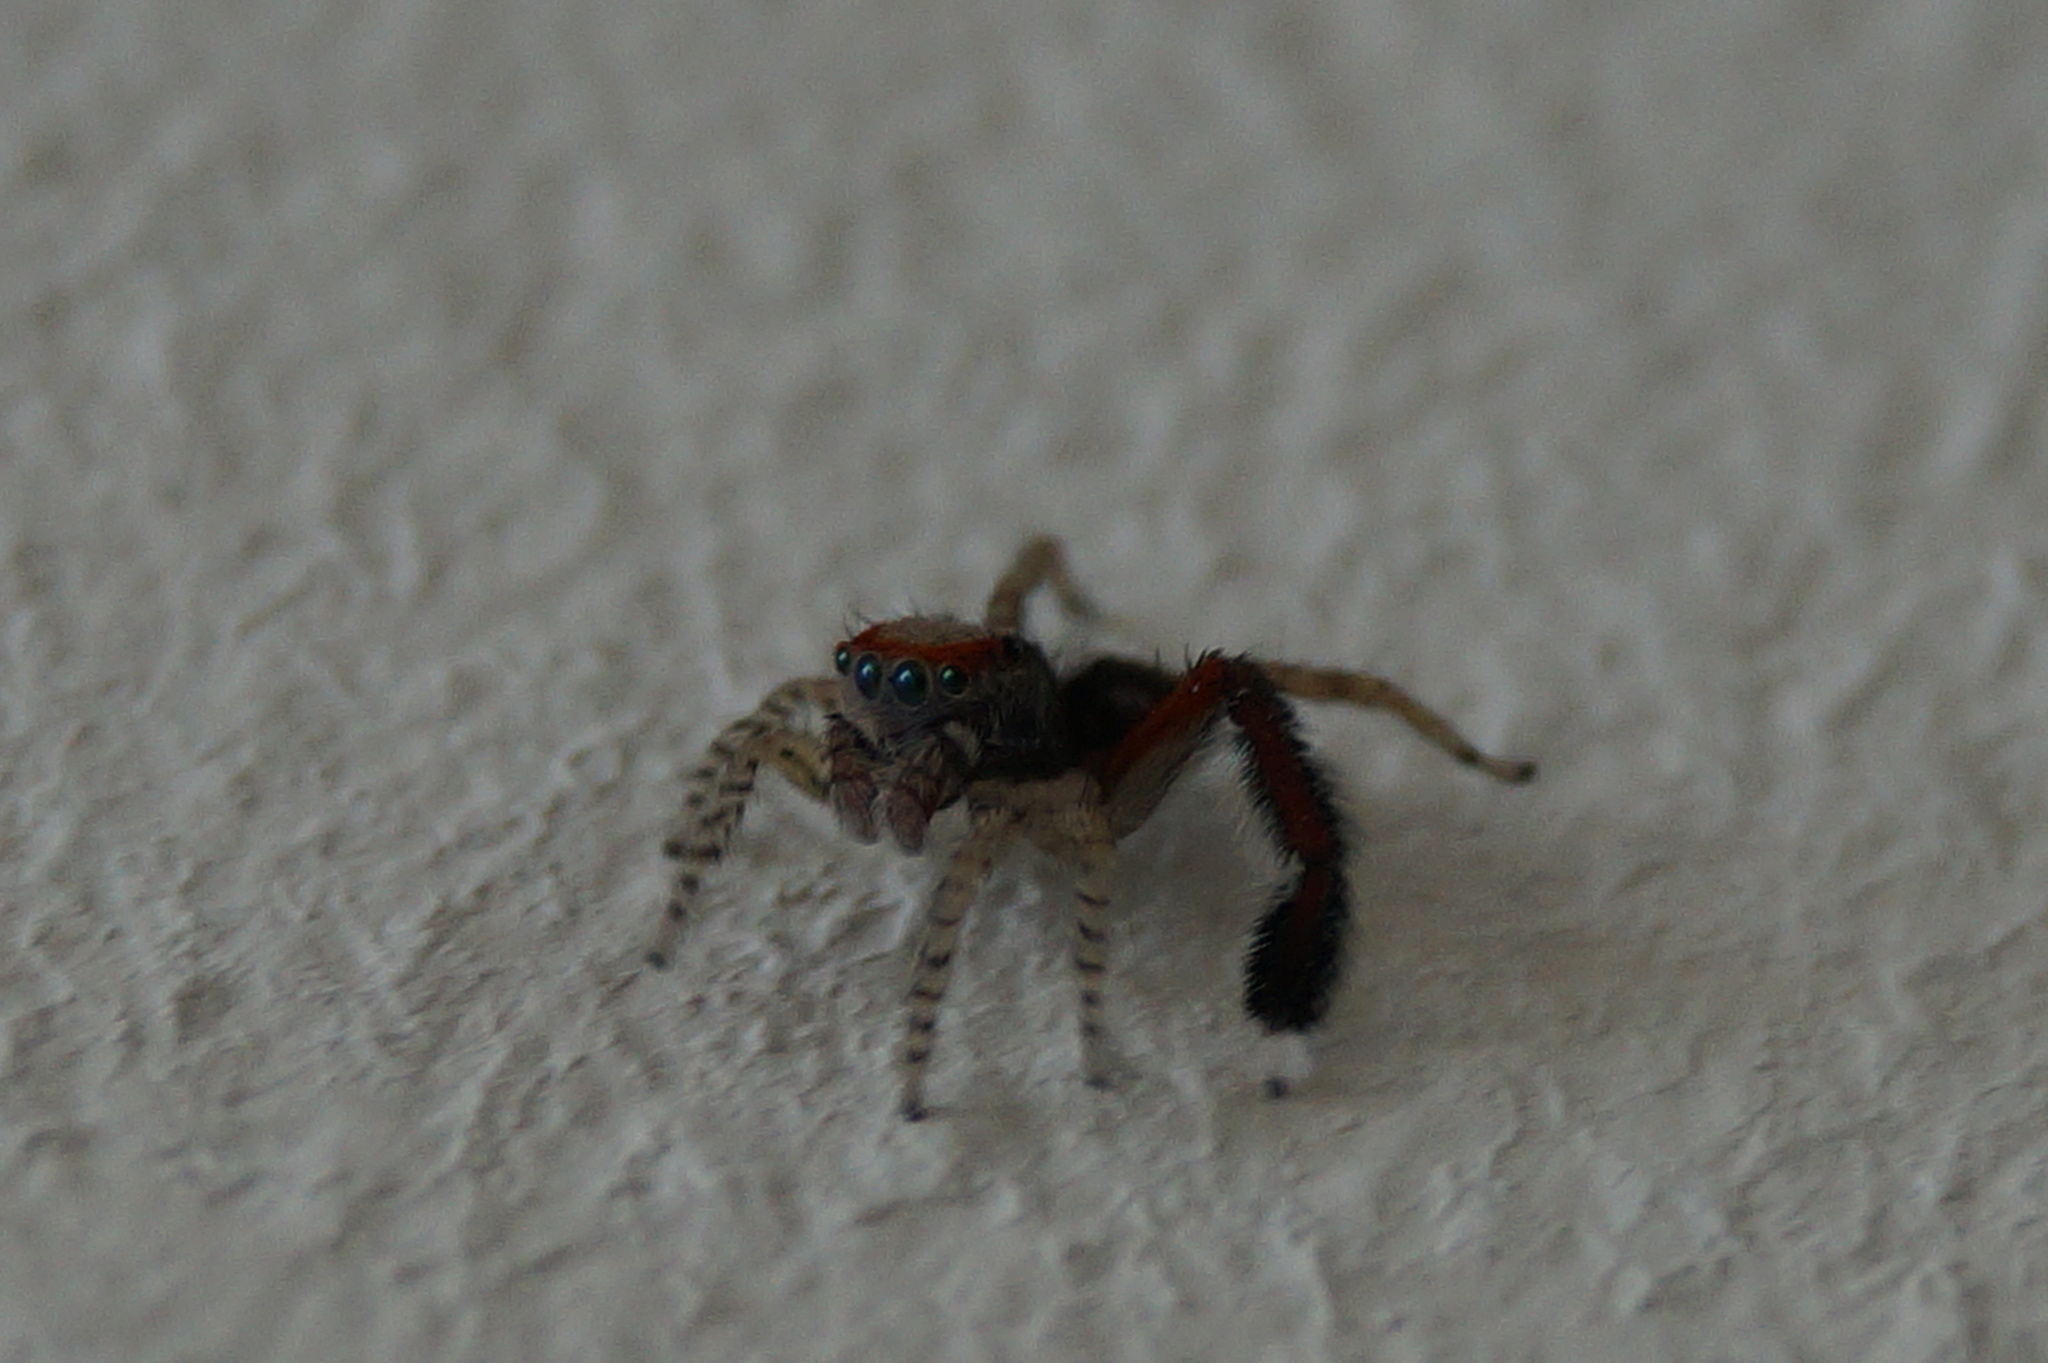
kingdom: Animalia
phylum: Arthropoda
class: Arachnida
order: Araneae
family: Salticidae
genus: Saitis
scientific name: Saitis barbipes
